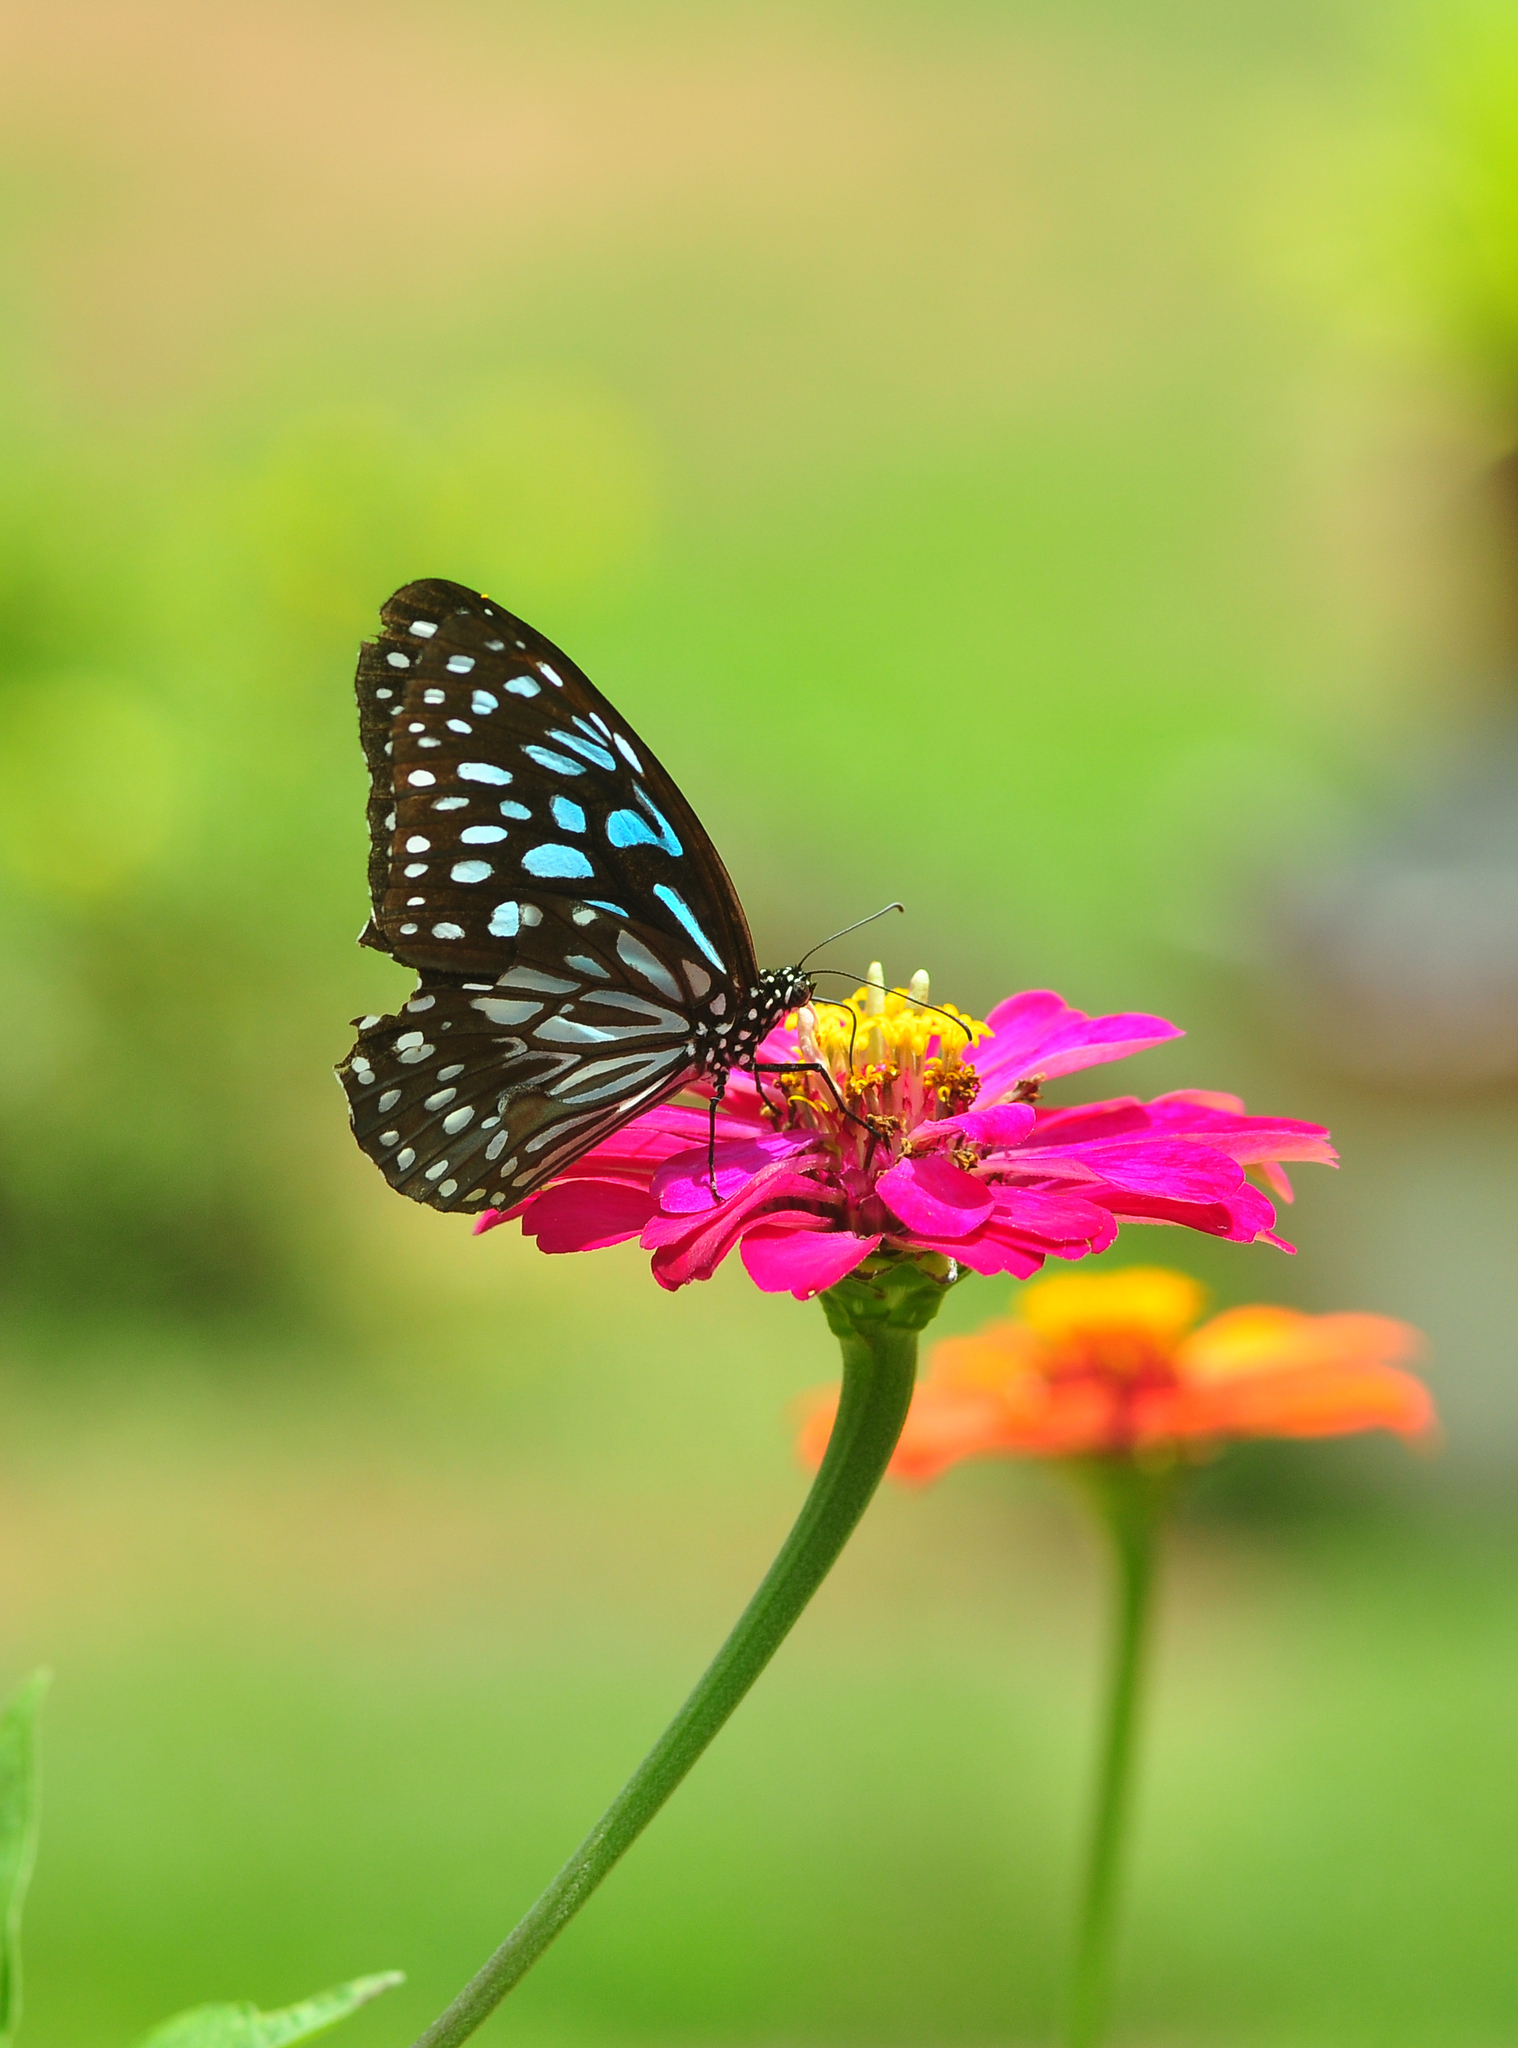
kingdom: Animalia
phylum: Arthropoda
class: Insecta
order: Lepidoptera
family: Nymphalidae
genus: Tirumala
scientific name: Tirumala septentrionis
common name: Dark blue tiger butterfly
